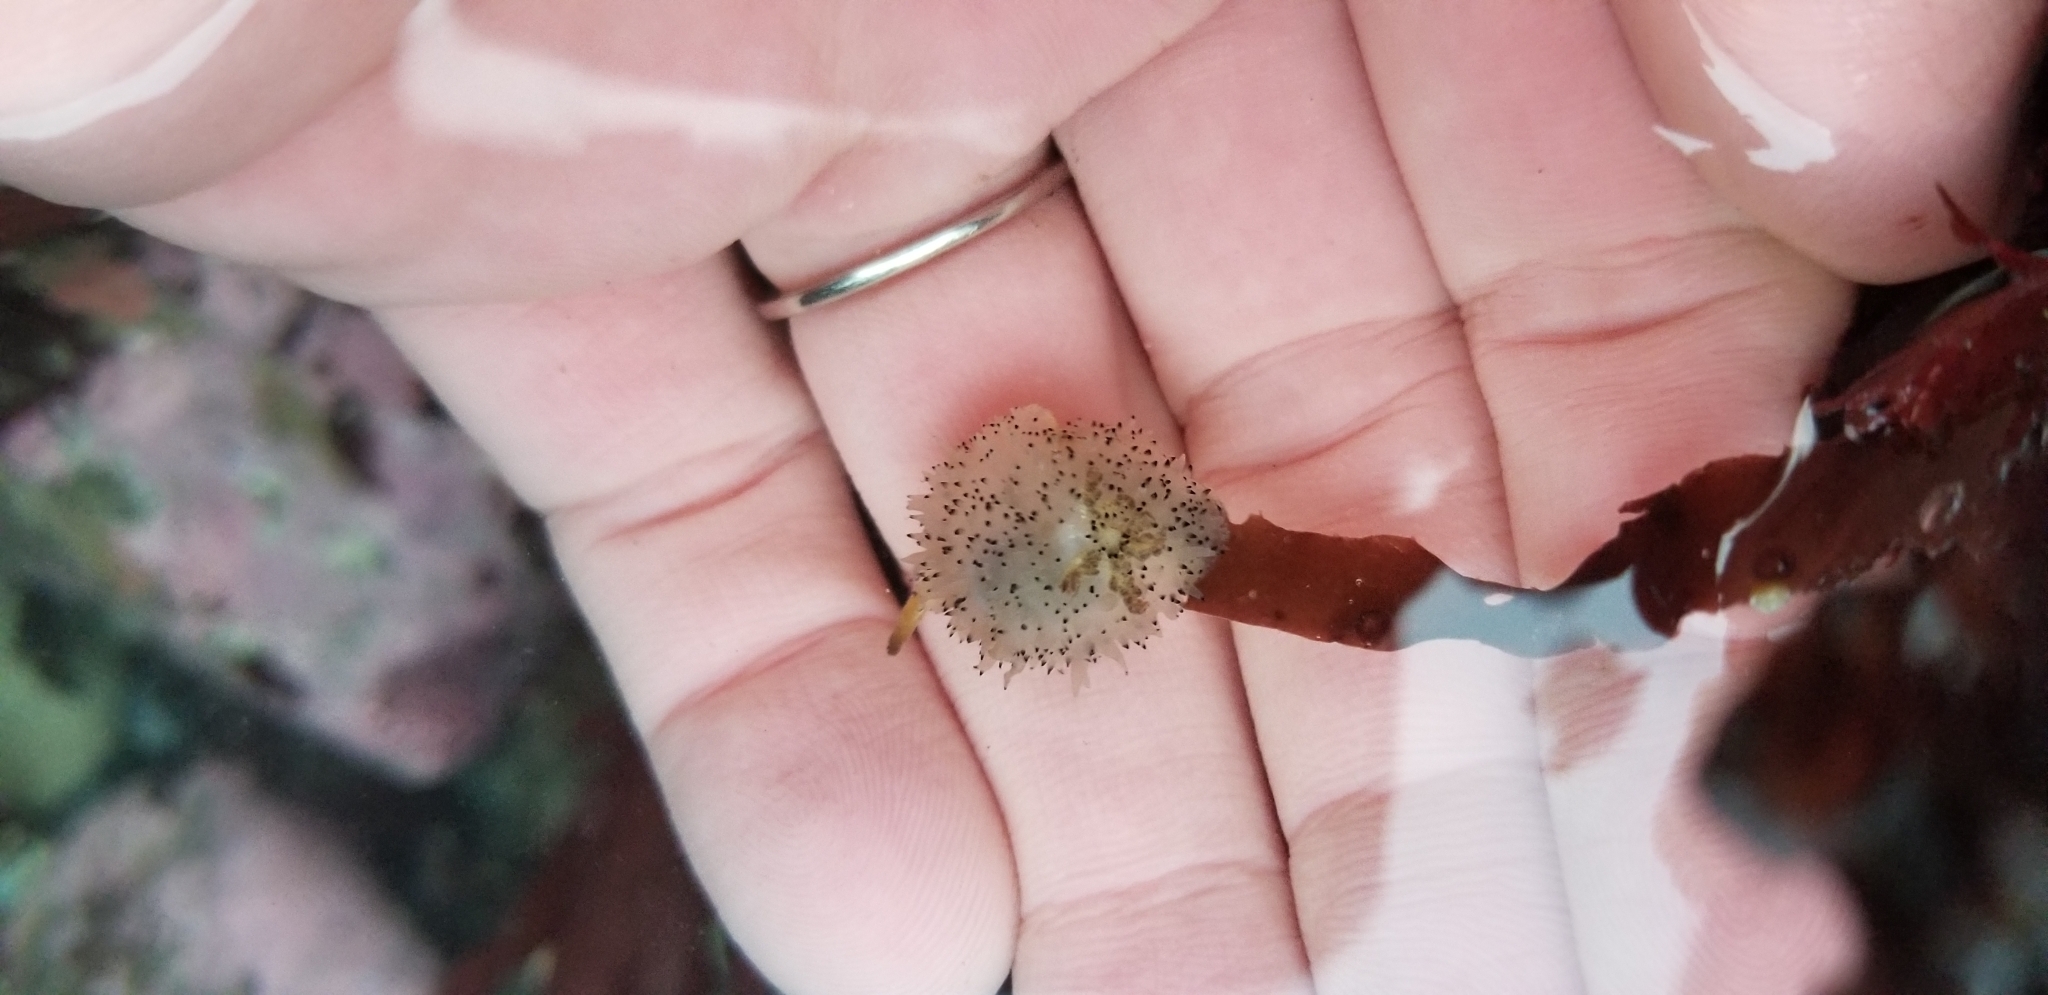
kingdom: Animalia
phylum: Mollusca
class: Gastropoda
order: Nudibranchia
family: Onchidorididae
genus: Acanthodoris
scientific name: Acanthodoris rhodoceras
